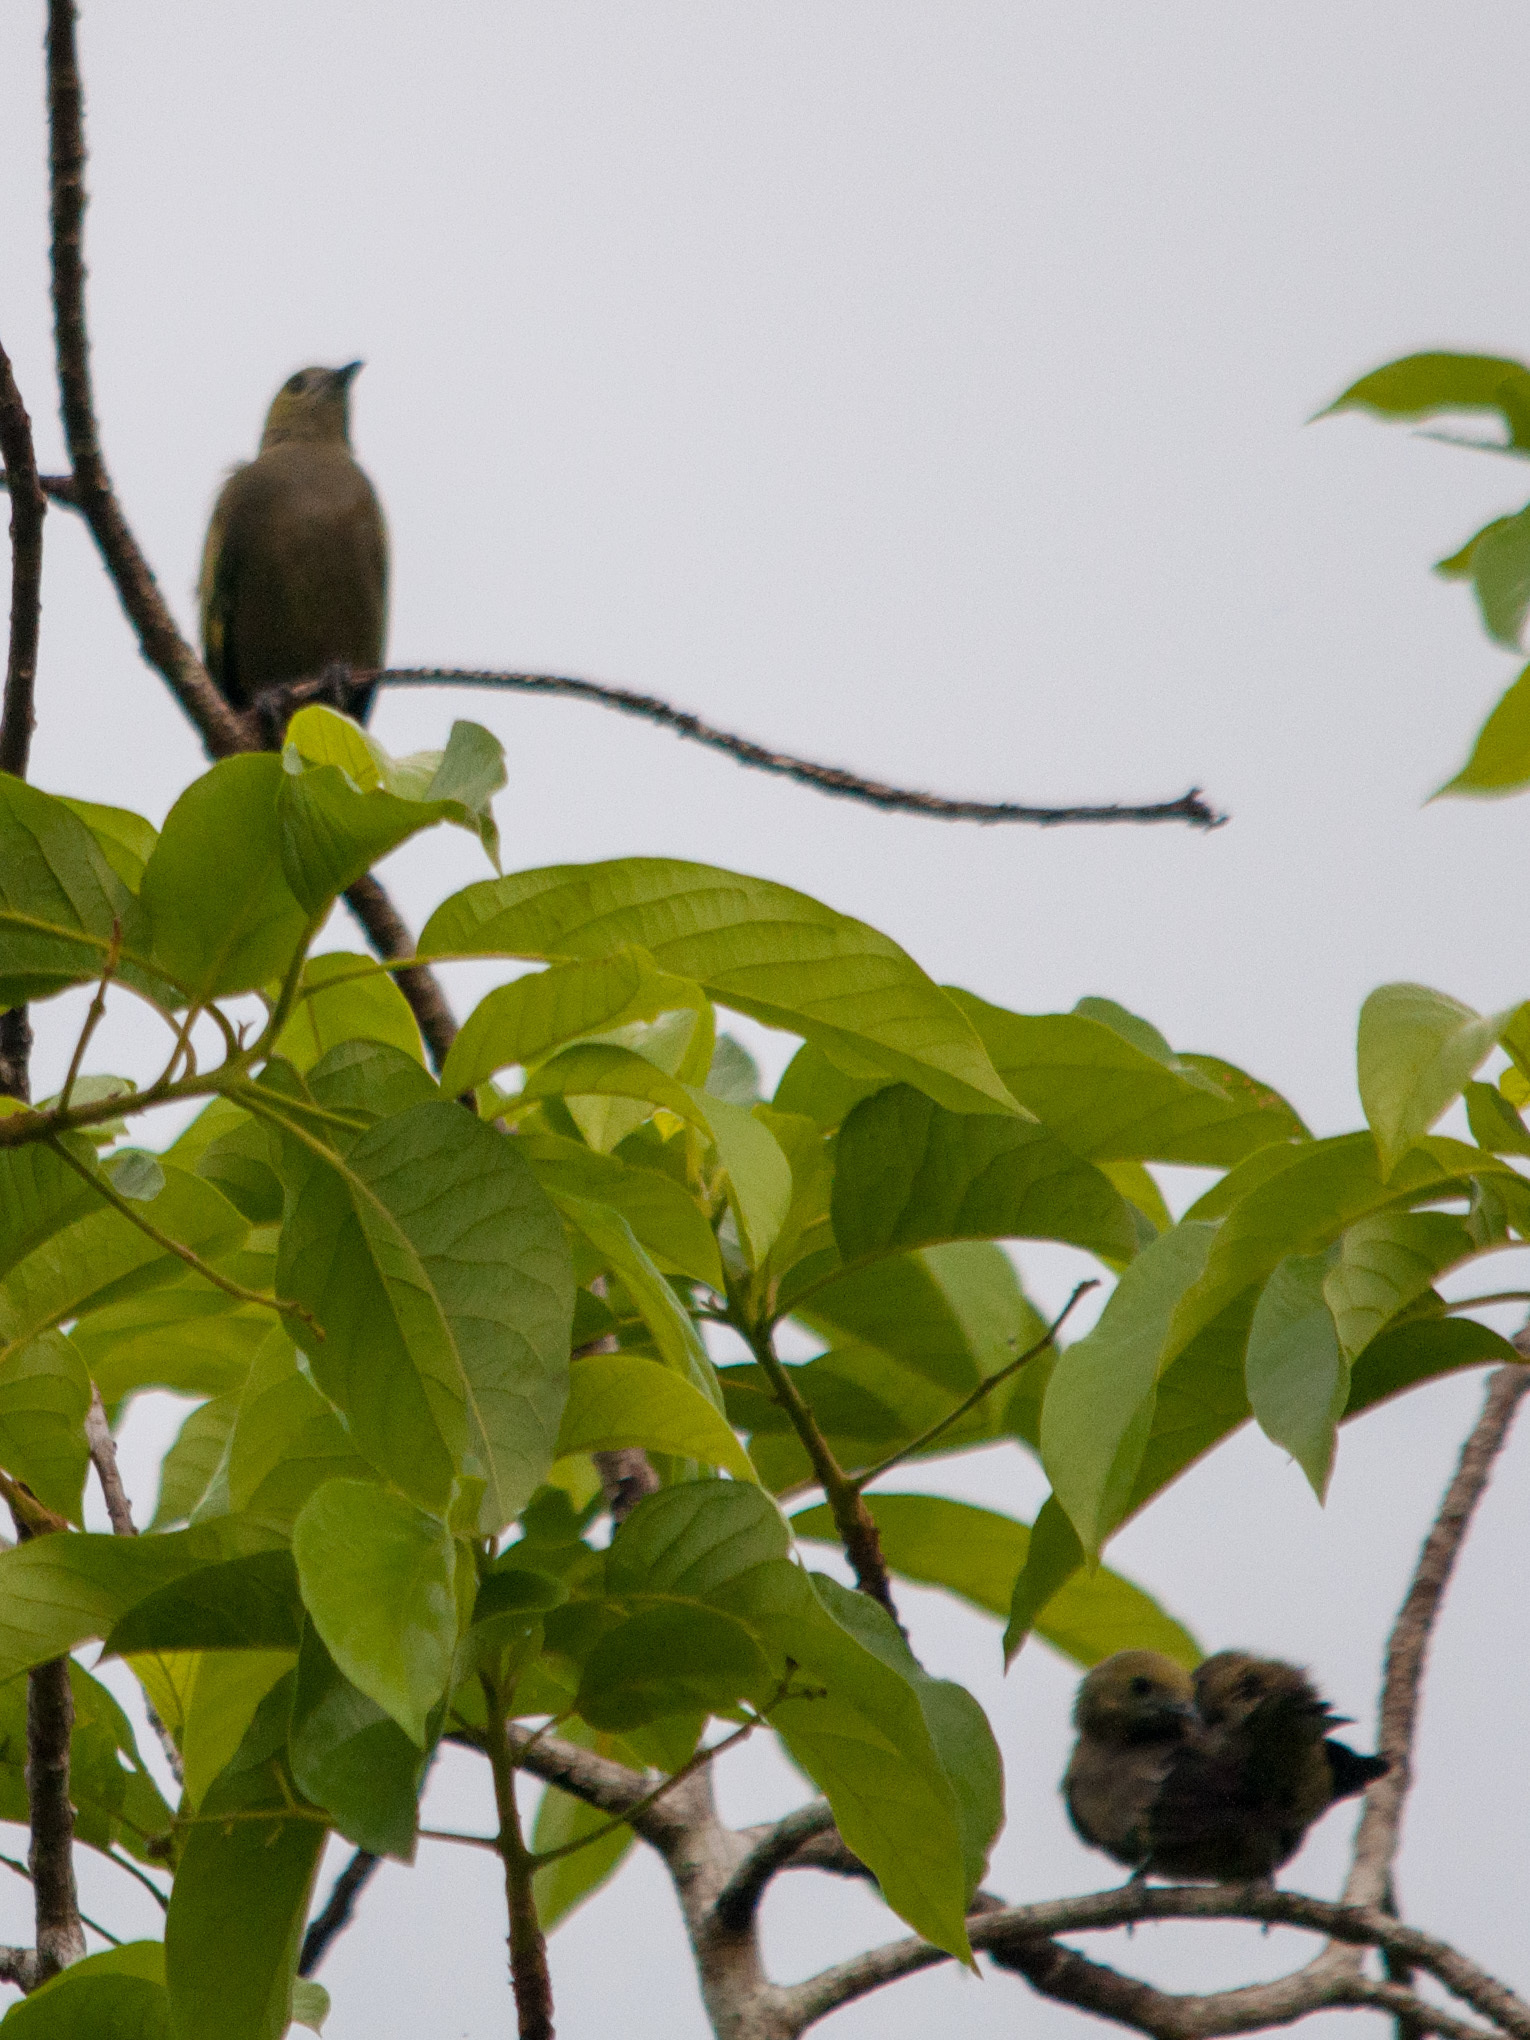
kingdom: Animalia
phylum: Chordata
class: Aves
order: Passeriformes
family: Thraupidae
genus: Thraupis
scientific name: Thraupis palmarum
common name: Palm tanager
